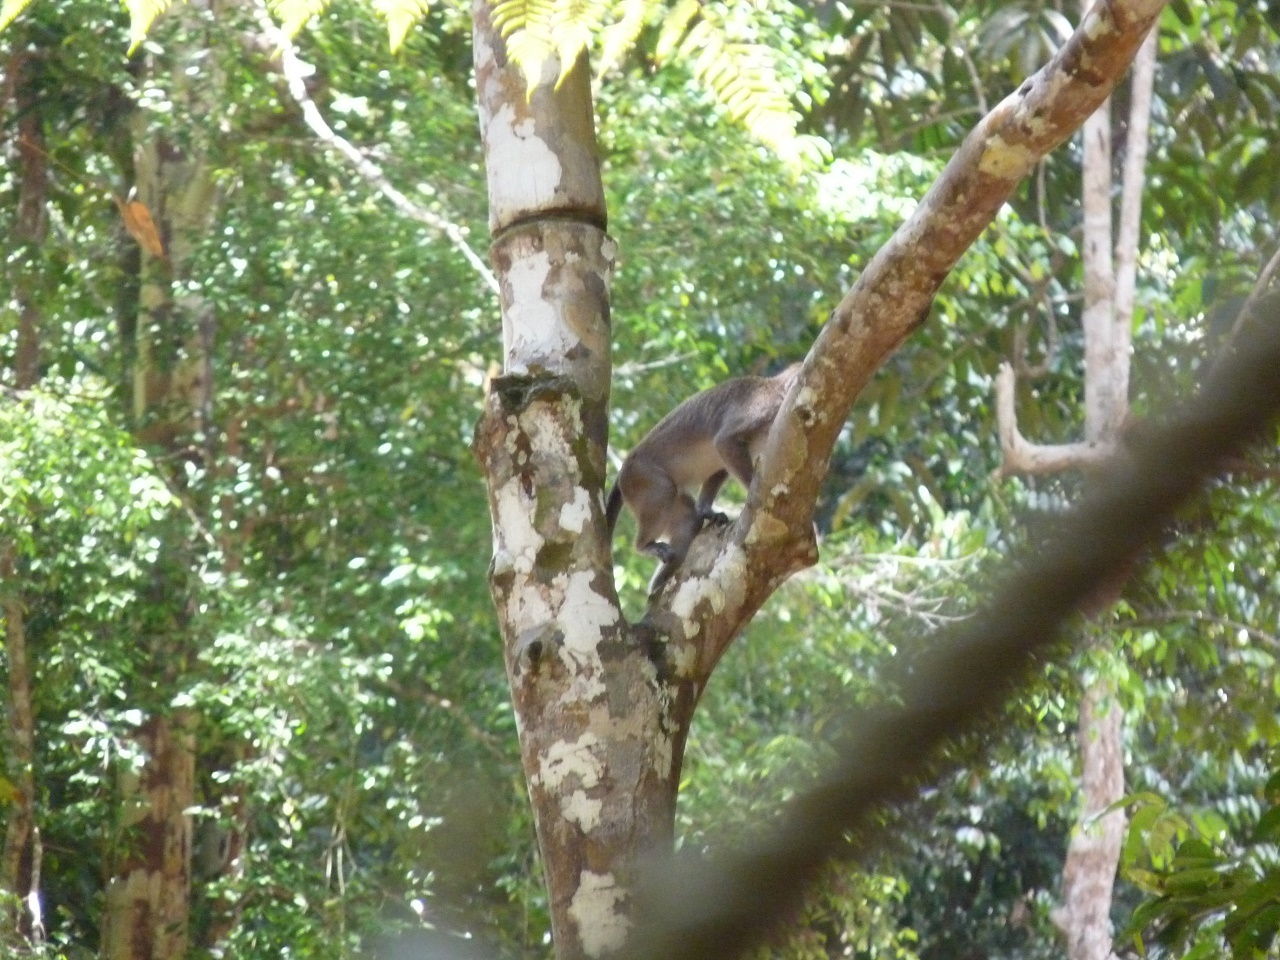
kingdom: Animalia
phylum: Chordata
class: Mammalia
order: Primates
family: Cercopithecidae
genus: Macaca
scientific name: Macaca fascicularis
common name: Crab-eating macaque
